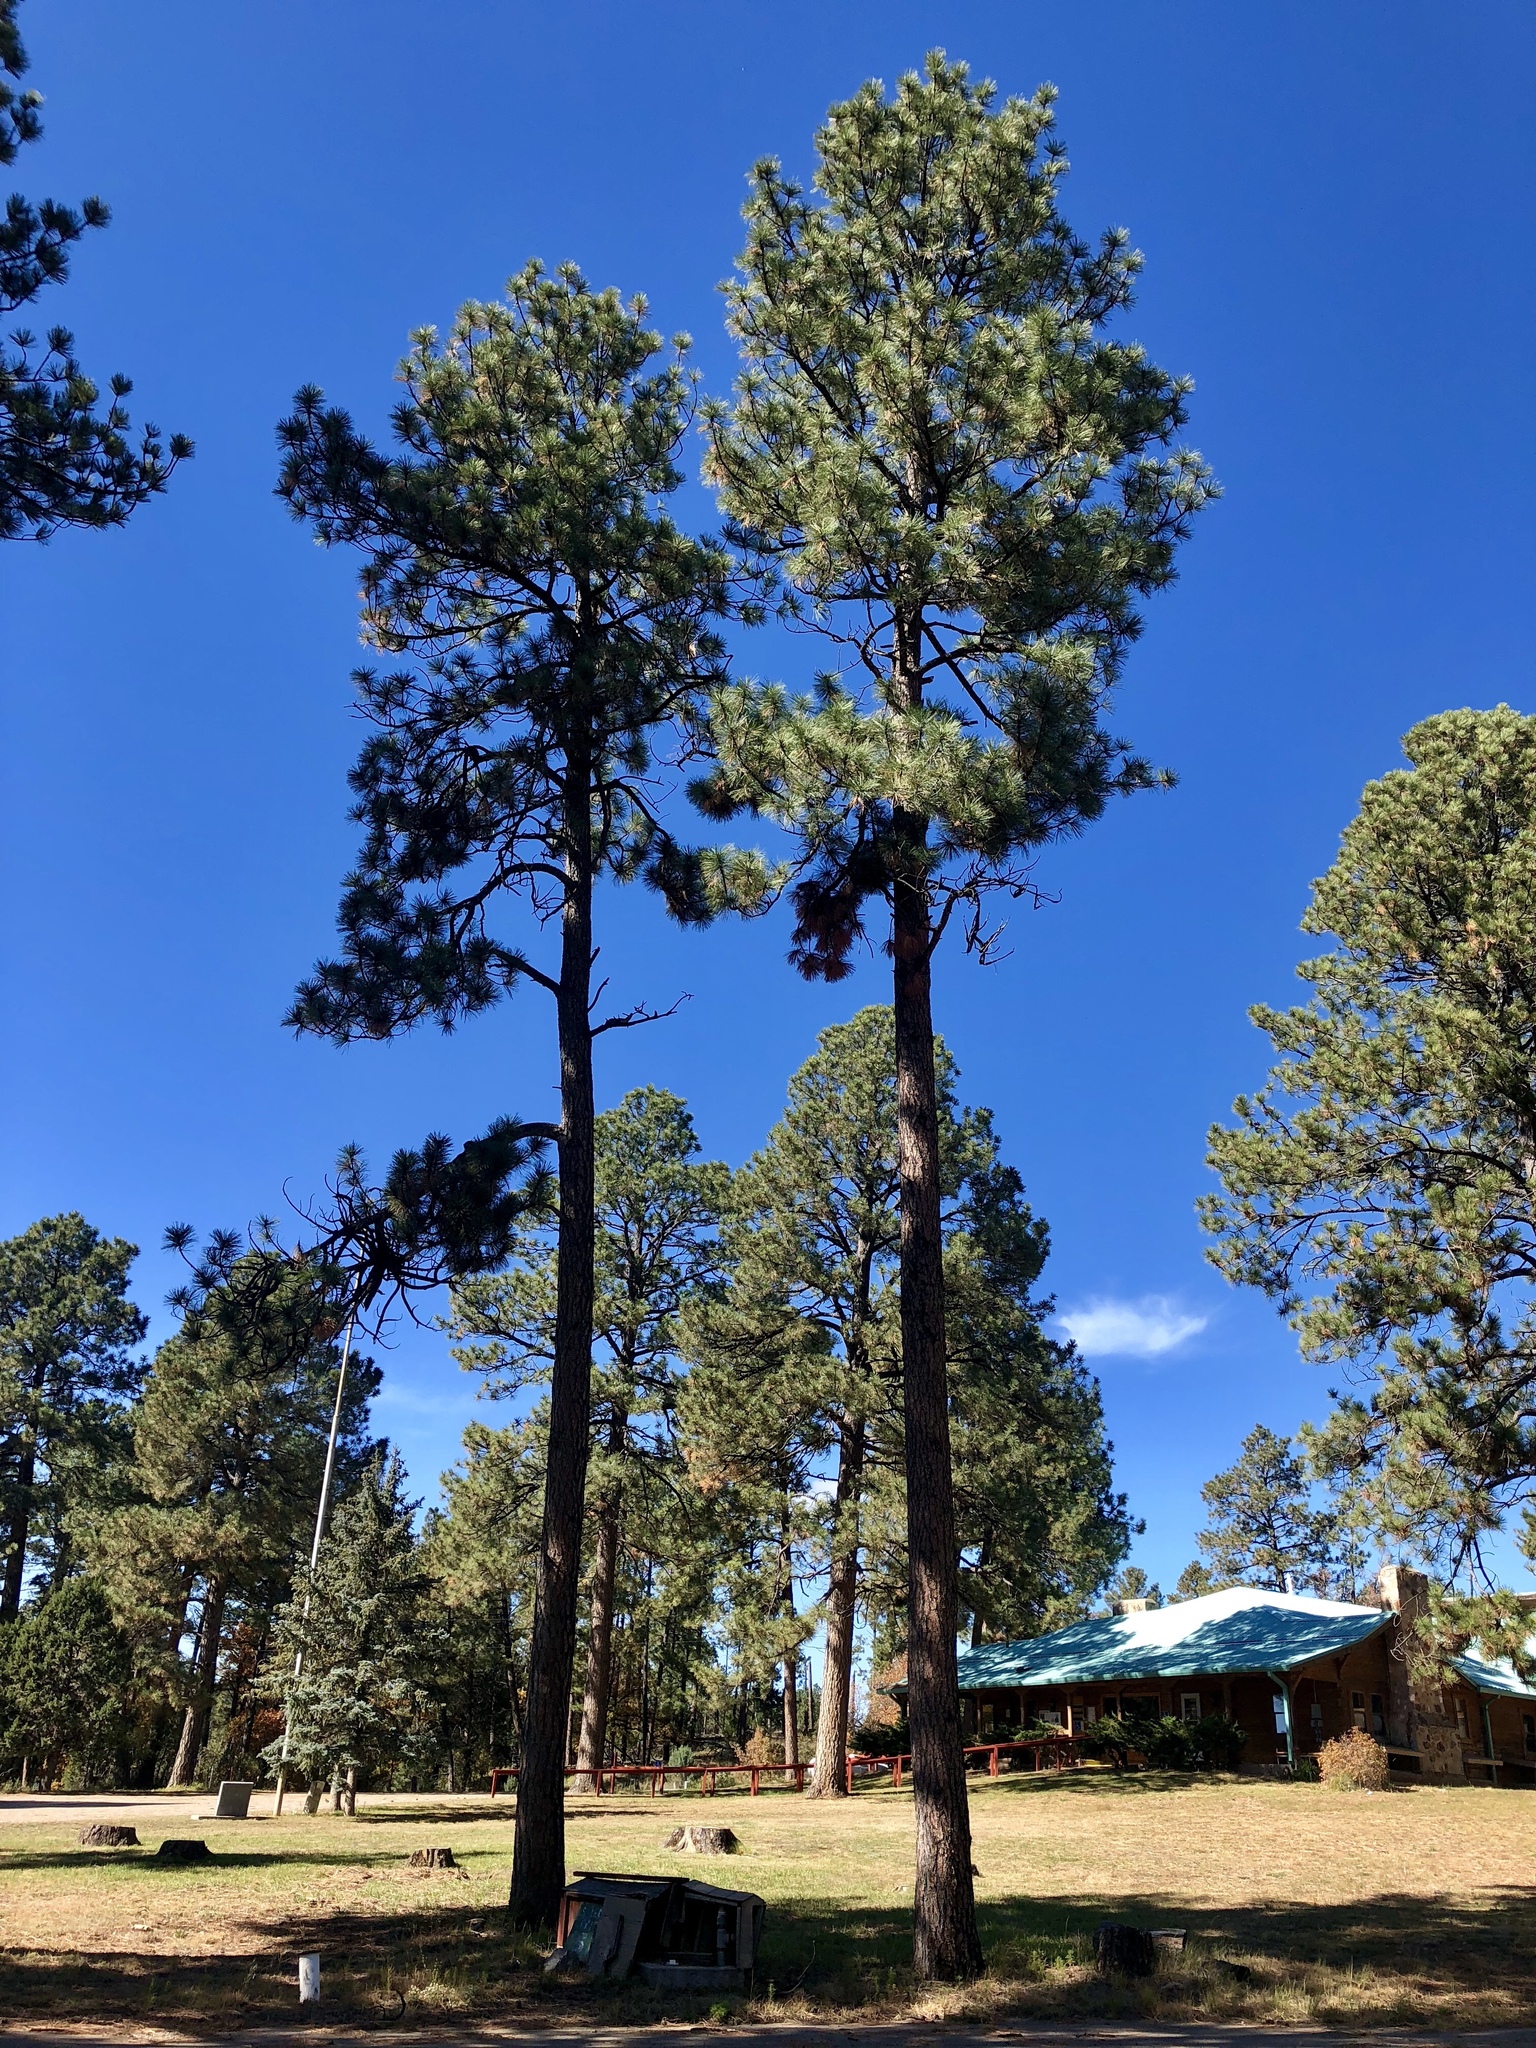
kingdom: Plantae
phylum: Tracheophyta
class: Pinopsida
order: Pinales
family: Pinaceae
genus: Pinus
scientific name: Pinus ponderosa
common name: Western yellow-pine
